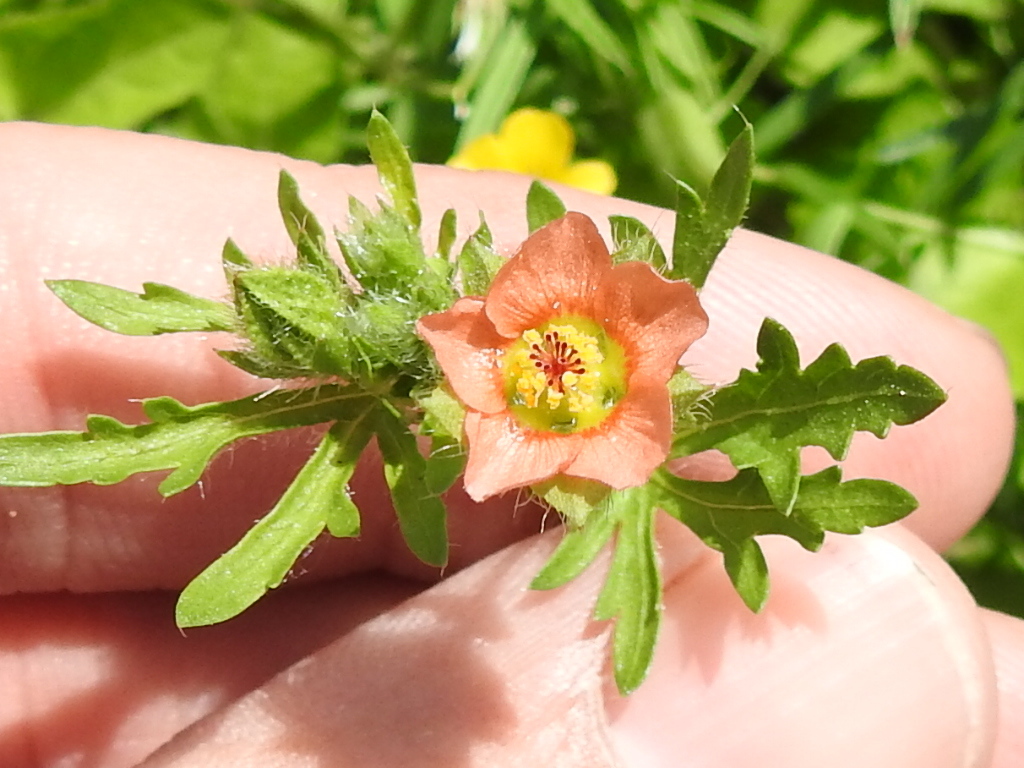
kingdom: Plantae
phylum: Tracheophyta
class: Magnoliopsida
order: Malvales
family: Malvaceae
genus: Modiola
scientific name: Modiola caroliniana
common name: Carolina bristlemallow
